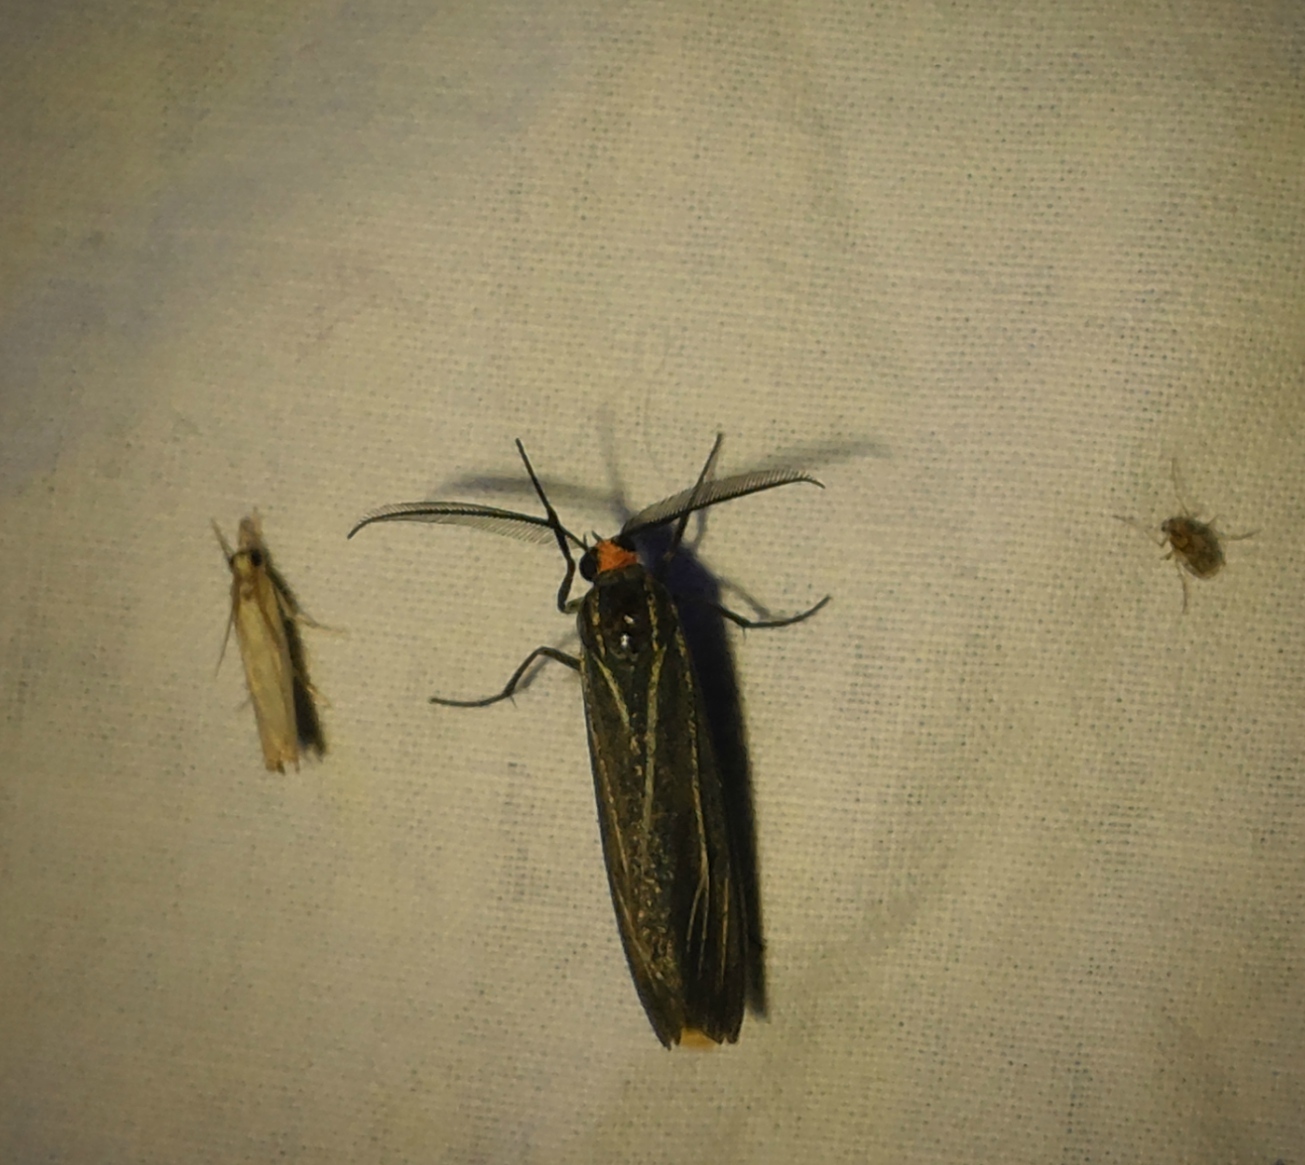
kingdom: Animalia
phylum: Arthropoda
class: Insecta
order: Lepidoptera
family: Erebidae
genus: Ctenucha
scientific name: Ctenucha venosa
